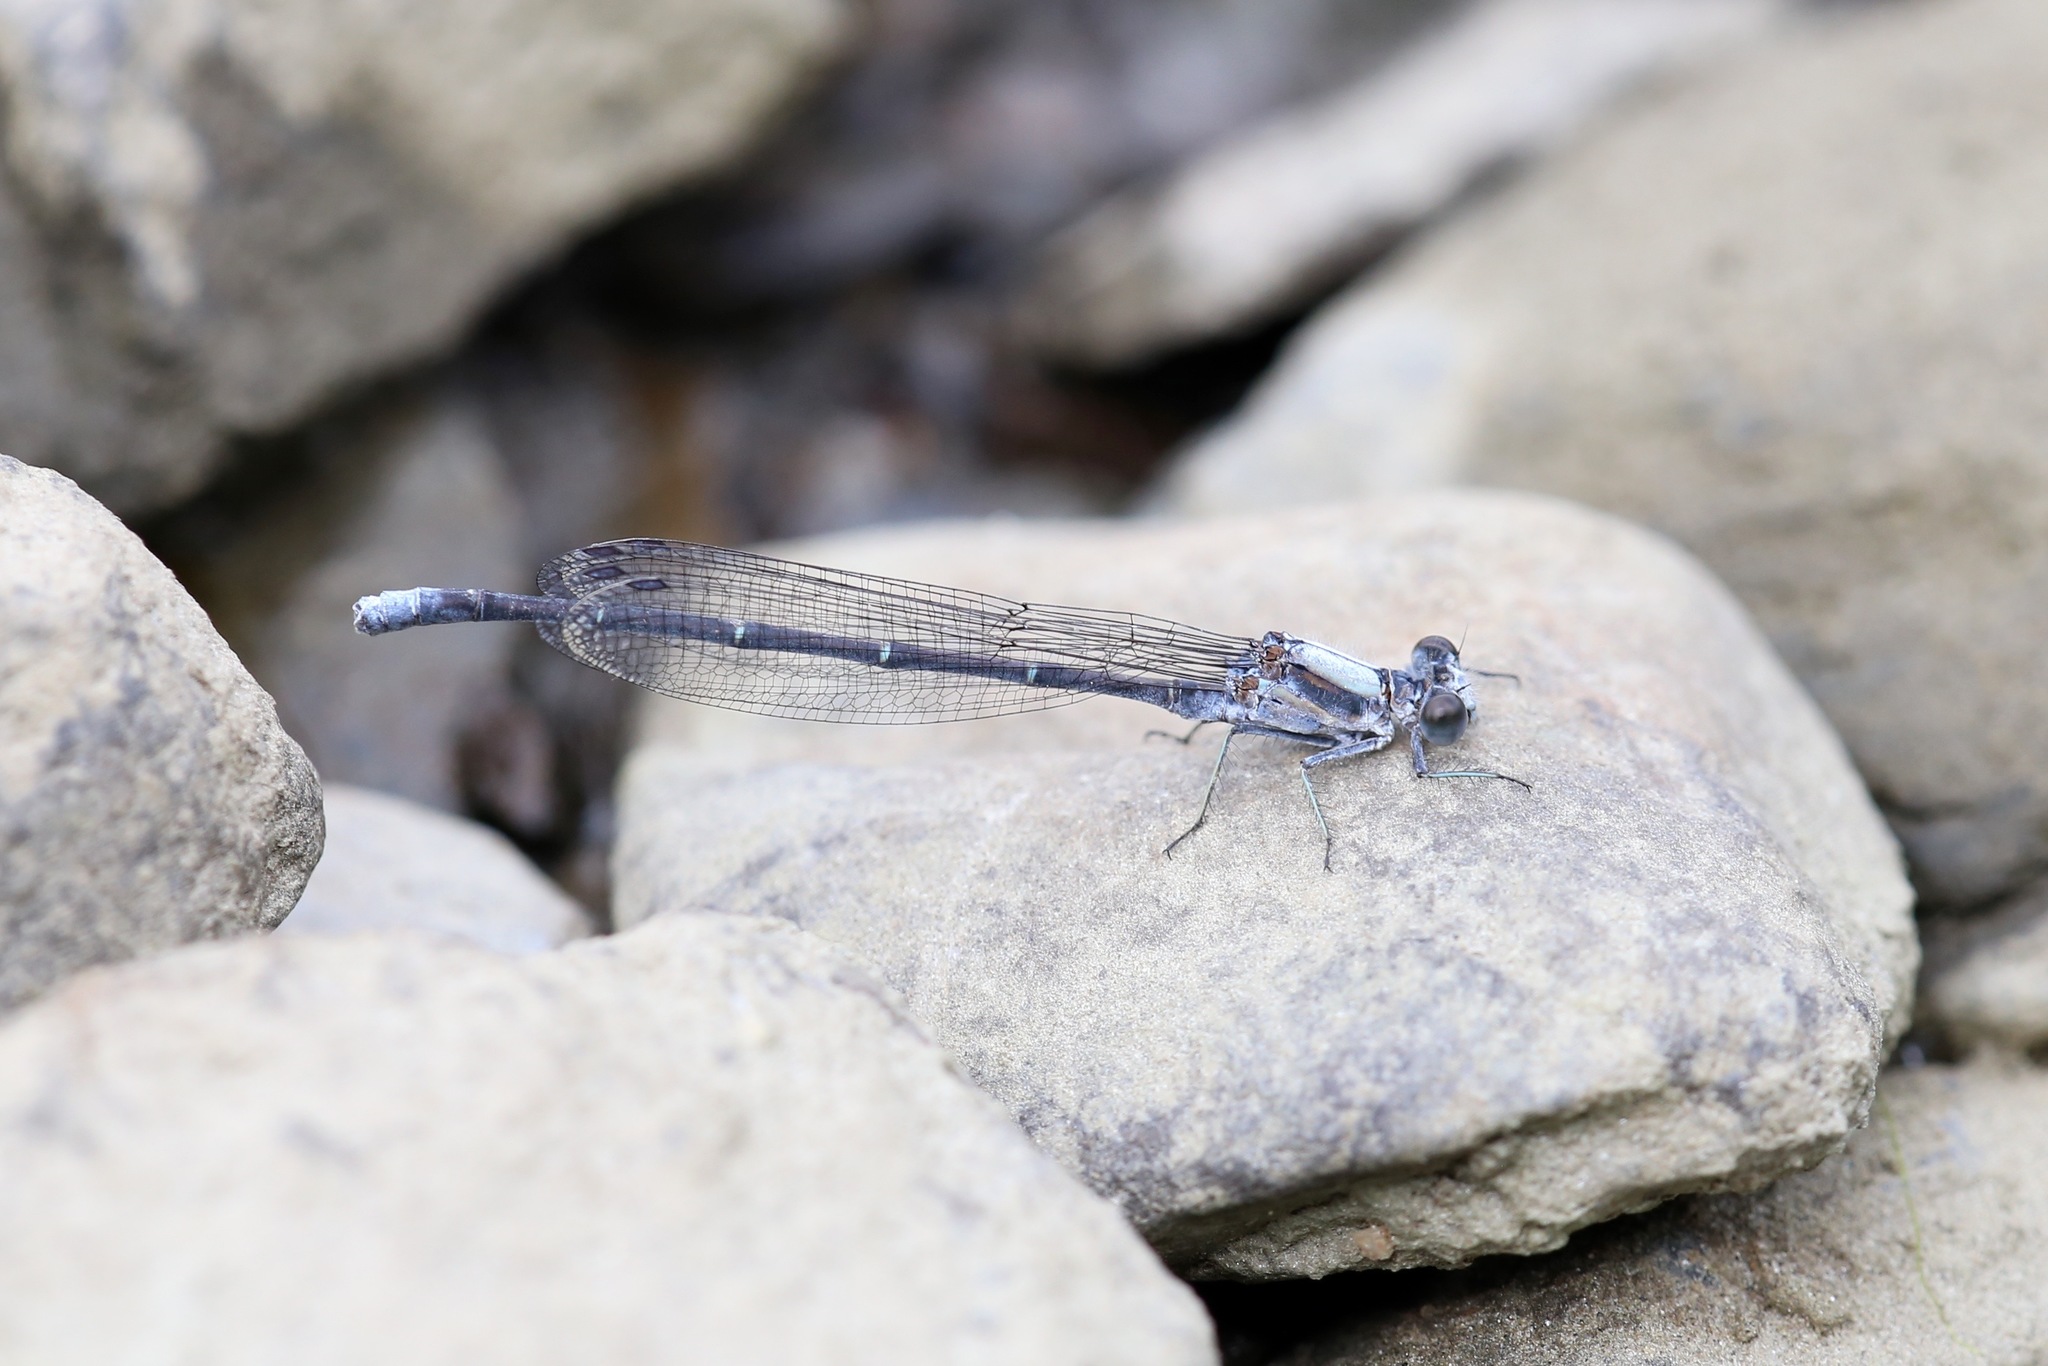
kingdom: Animalia
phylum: Arthropoda
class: Insecta
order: Odonata
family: Coenagrionidae
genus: Argia
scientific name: Argia moesta
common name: Powdered dancer
